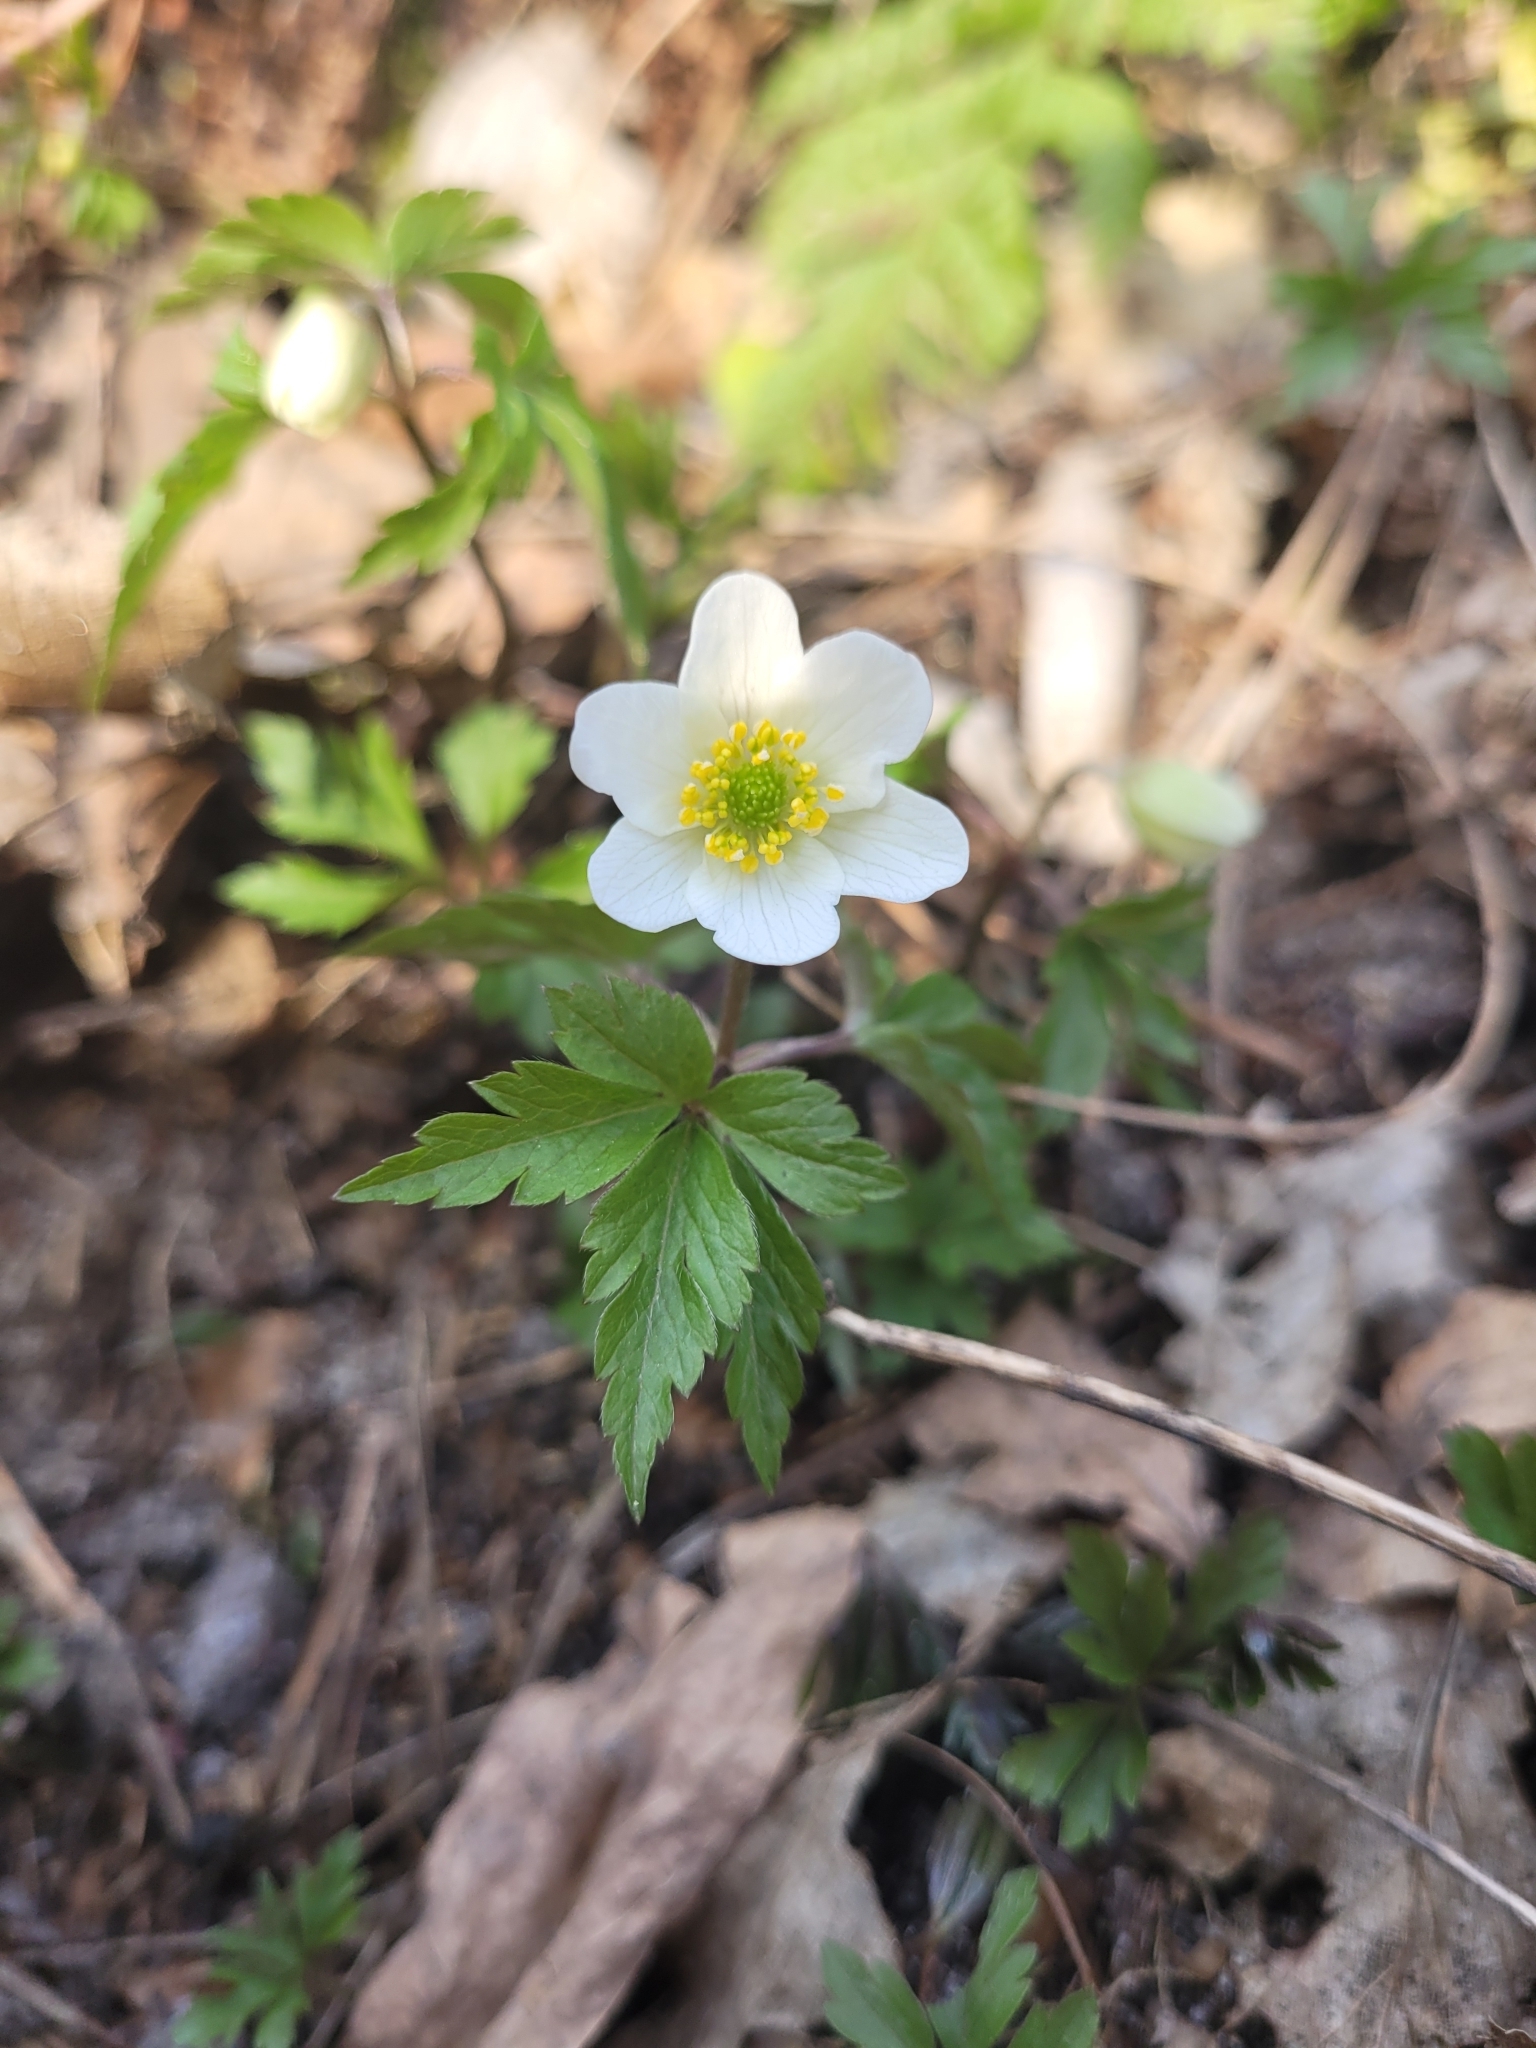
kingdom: Plantae
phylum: Tracheophyta
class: Magnoliopsida
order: Ranunculales
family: Ranunculaceae
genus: Anemone
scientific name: Anemone nemorosa
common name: Wood anemone
